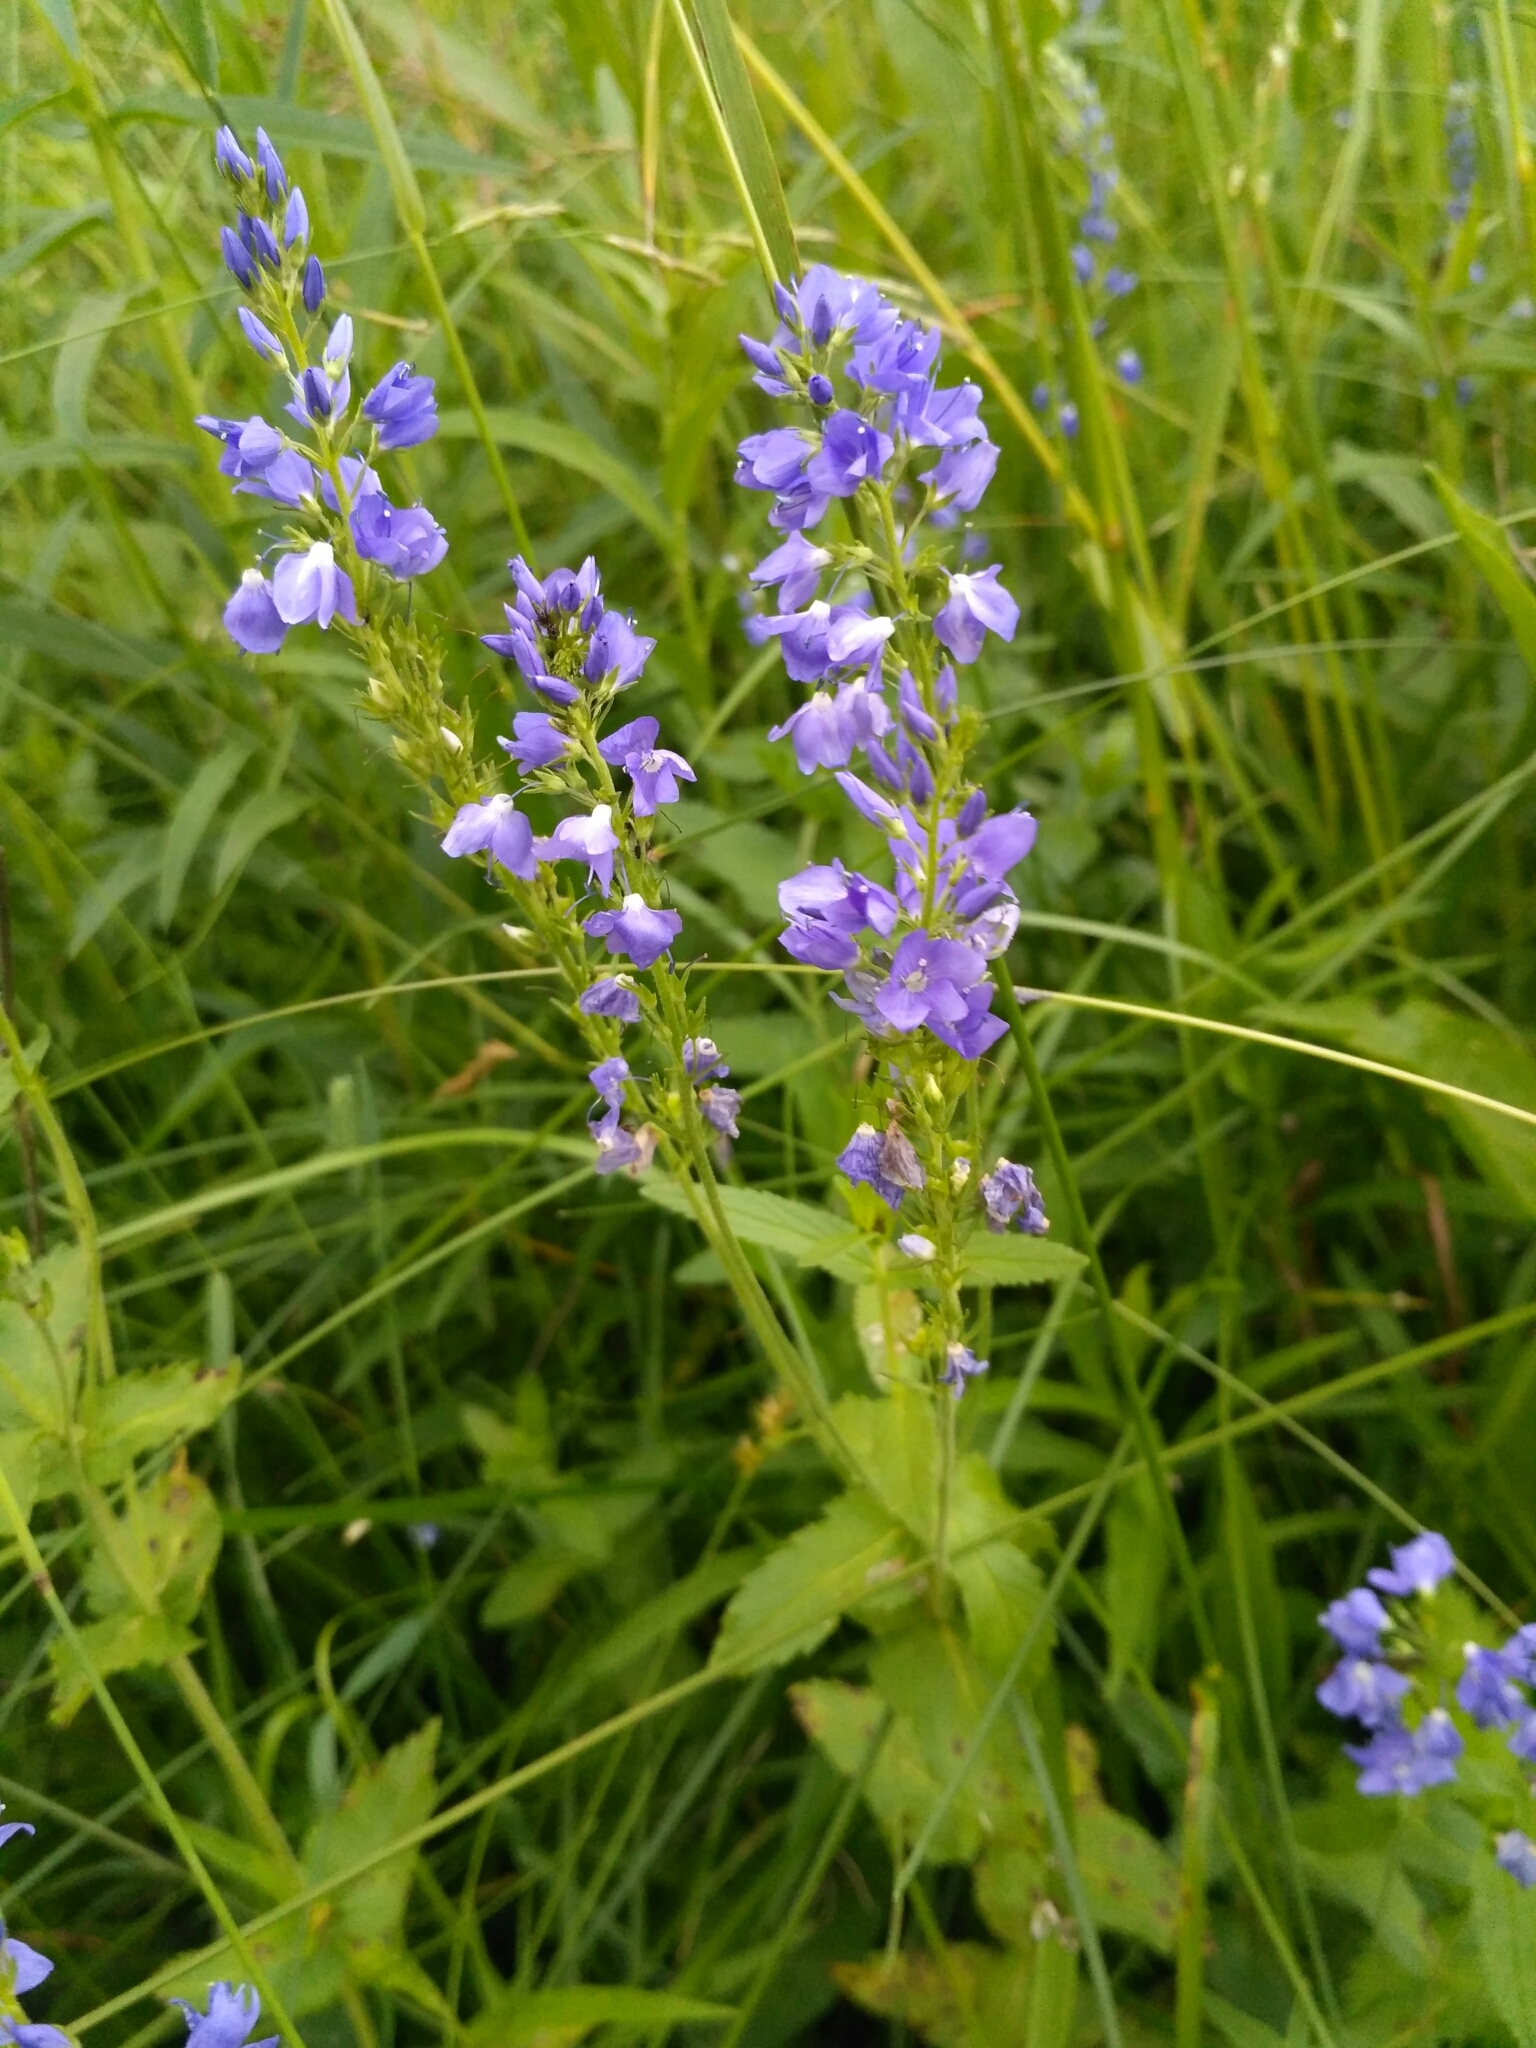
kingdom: Plantae
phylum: Tracheophyta
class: Magnoliopsida
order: Lamiales
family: Plantaginaceae
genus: Veronica
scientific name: Veronica teucrium
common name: Large speedwell
